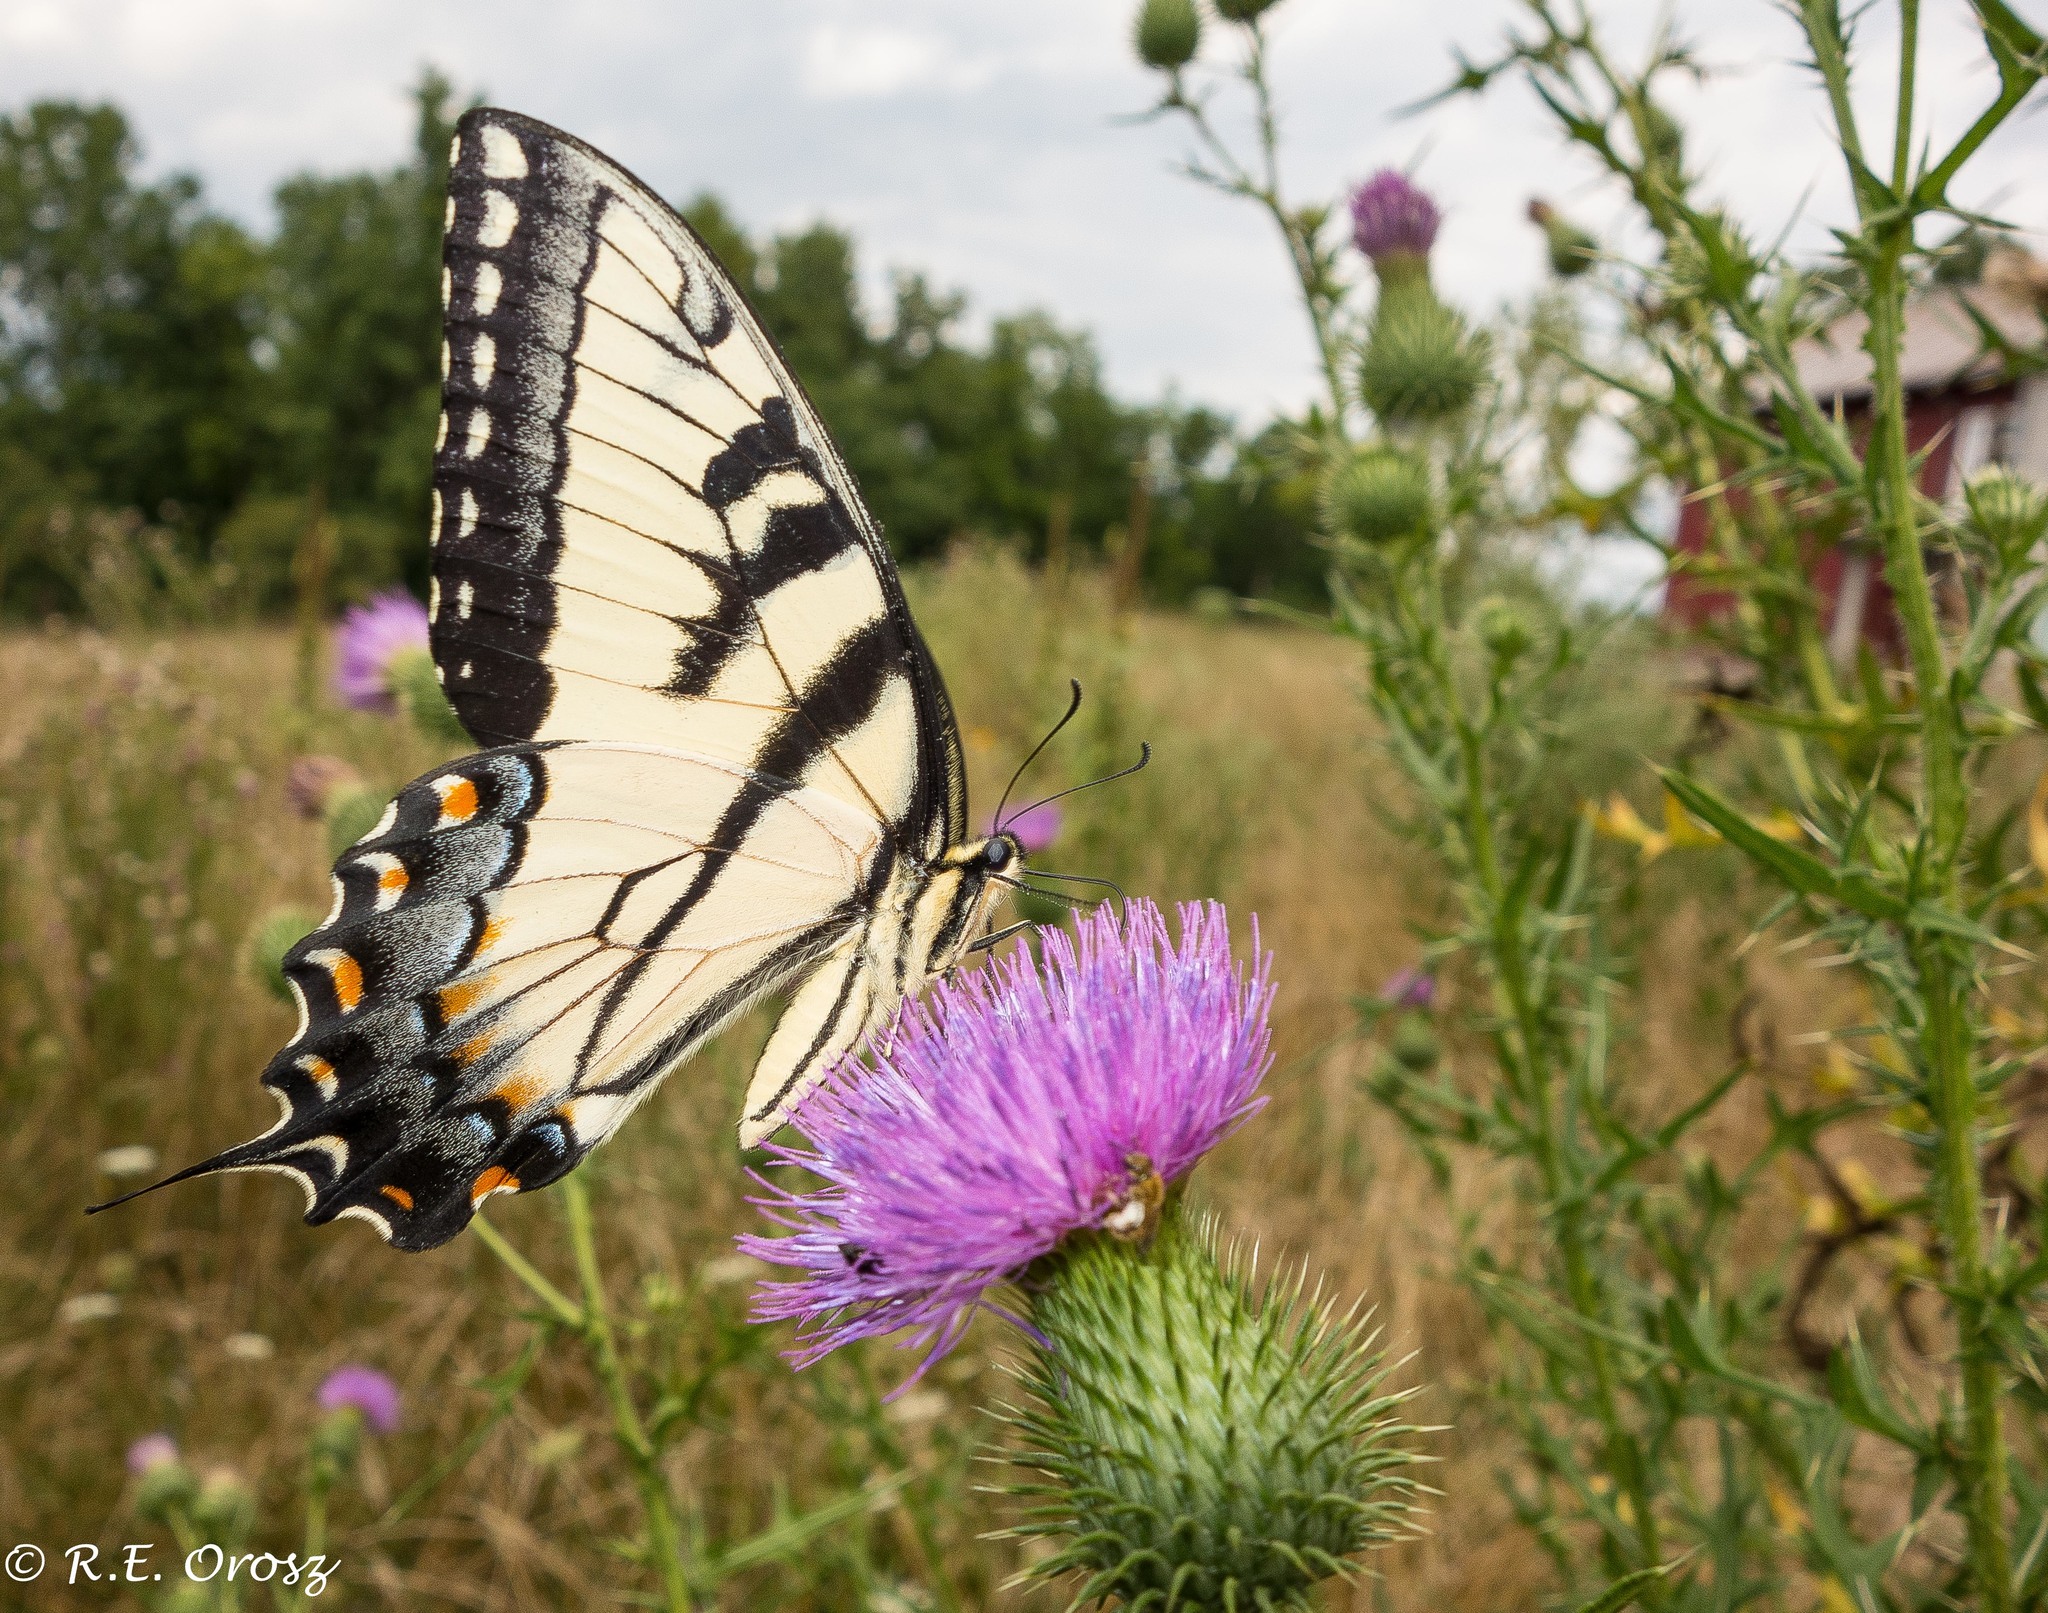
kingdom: Animalia
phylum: Arthropoda
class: Insecta
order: Lepidoptera
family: Papilionidae
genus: Papilio
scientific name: Papilio glaucus
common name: Tiger swallowtail
